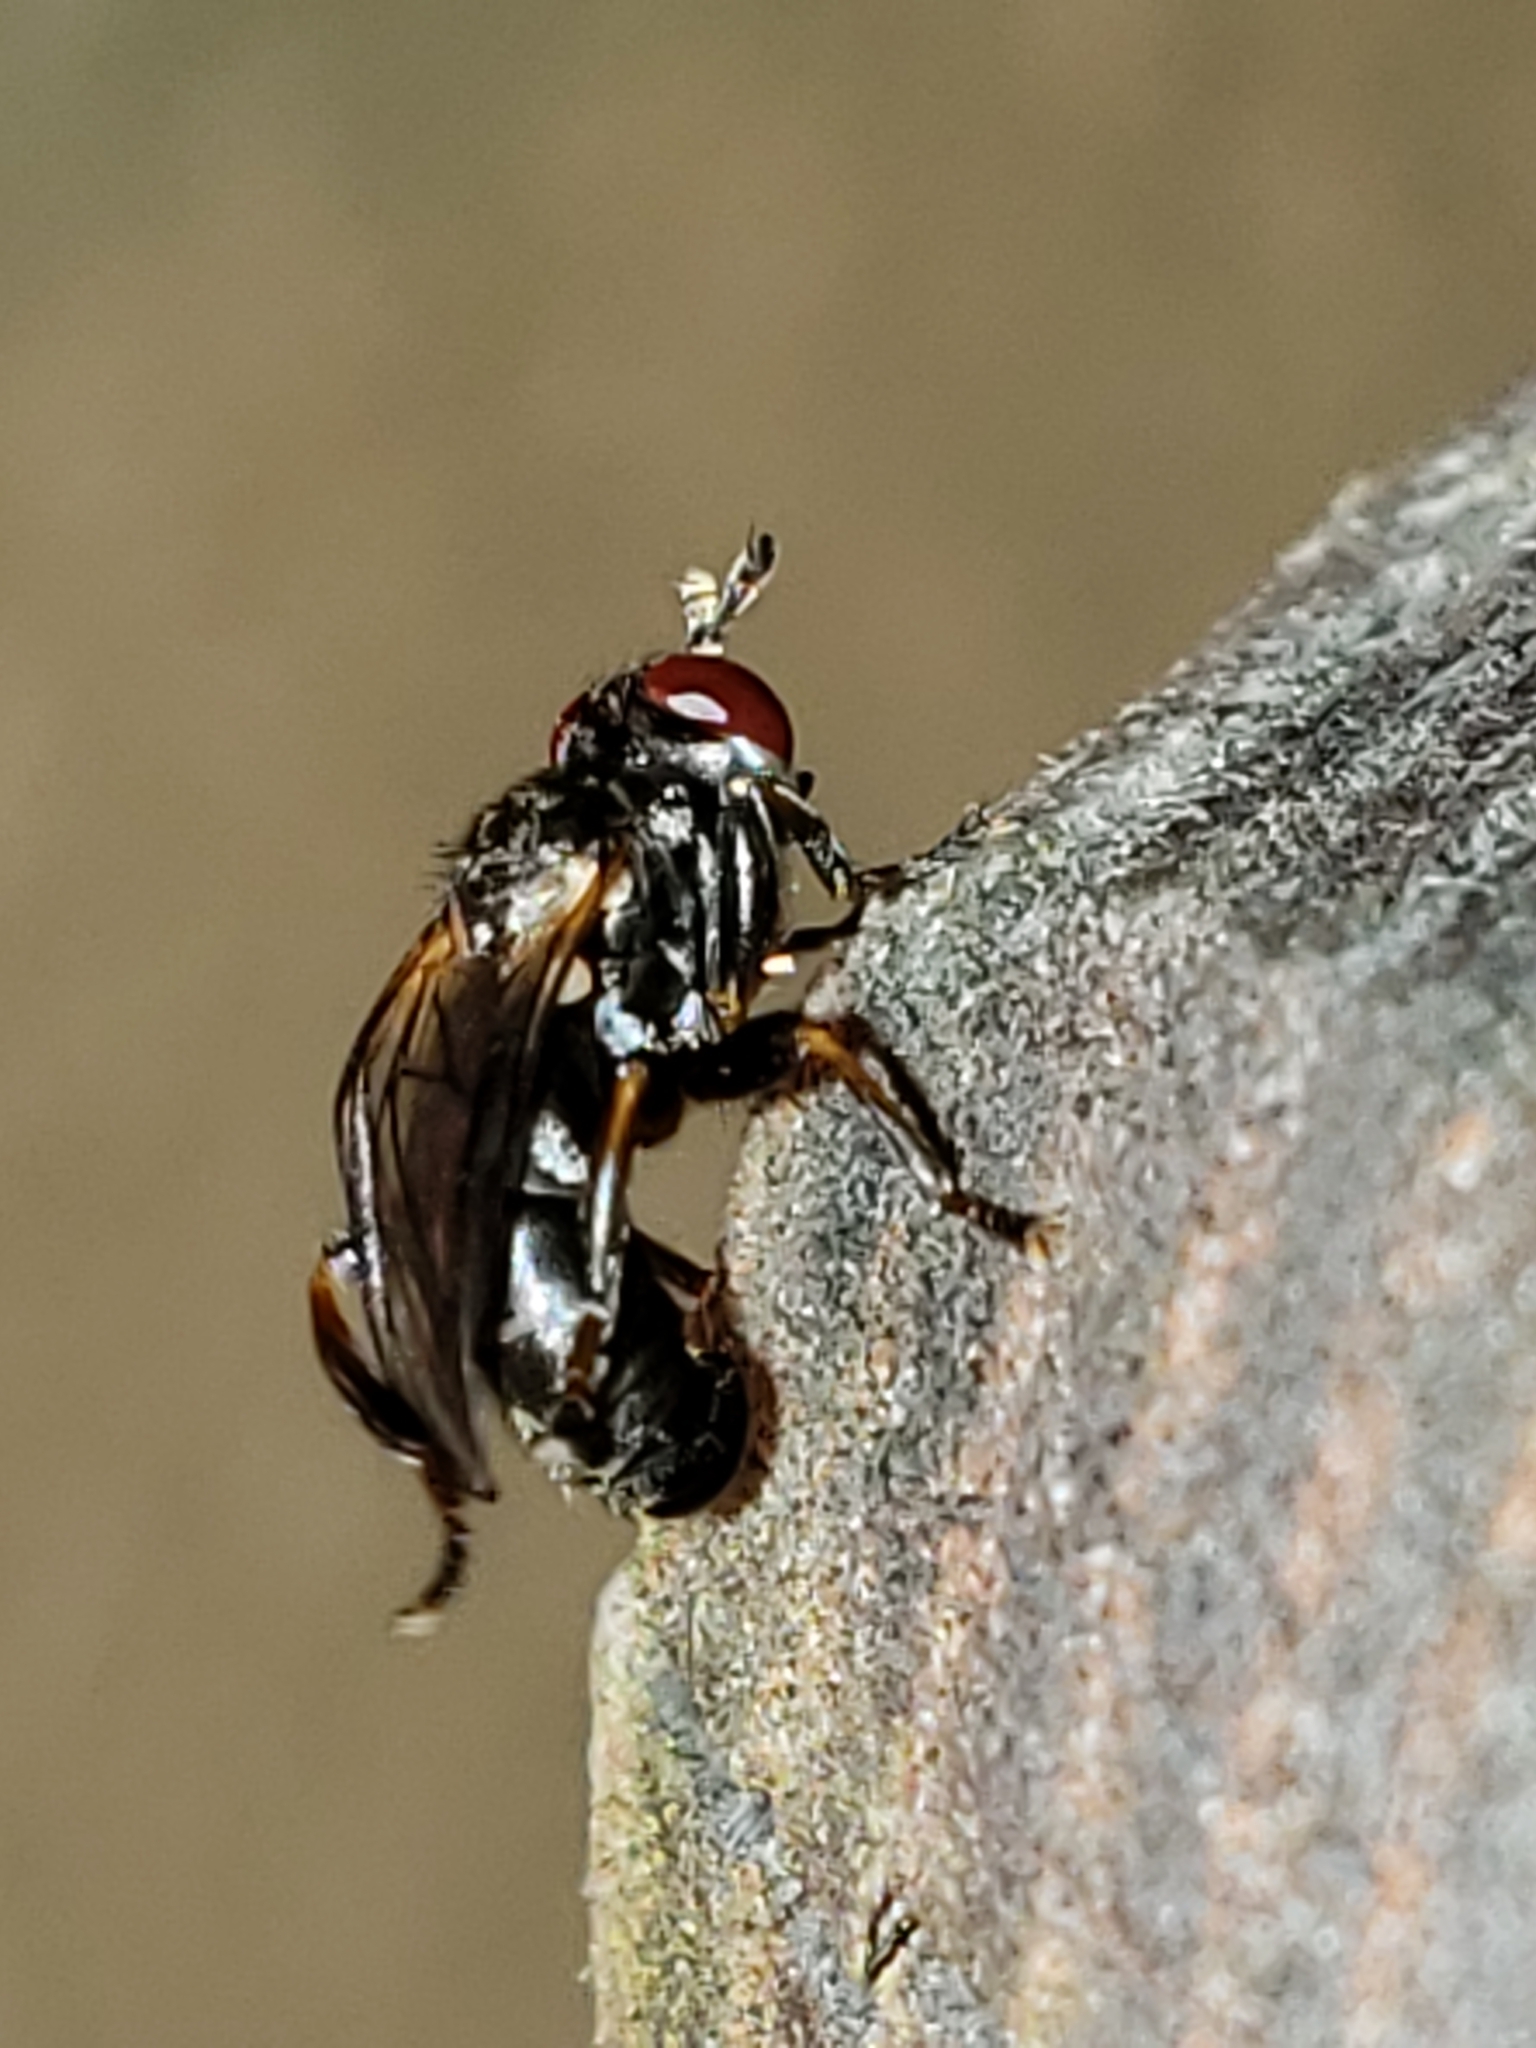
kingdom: Animalia
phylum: Arthropoda
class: Insecta
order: Diptera
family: Conopidae
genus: Thecophora
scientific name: Thecophora occidensis
